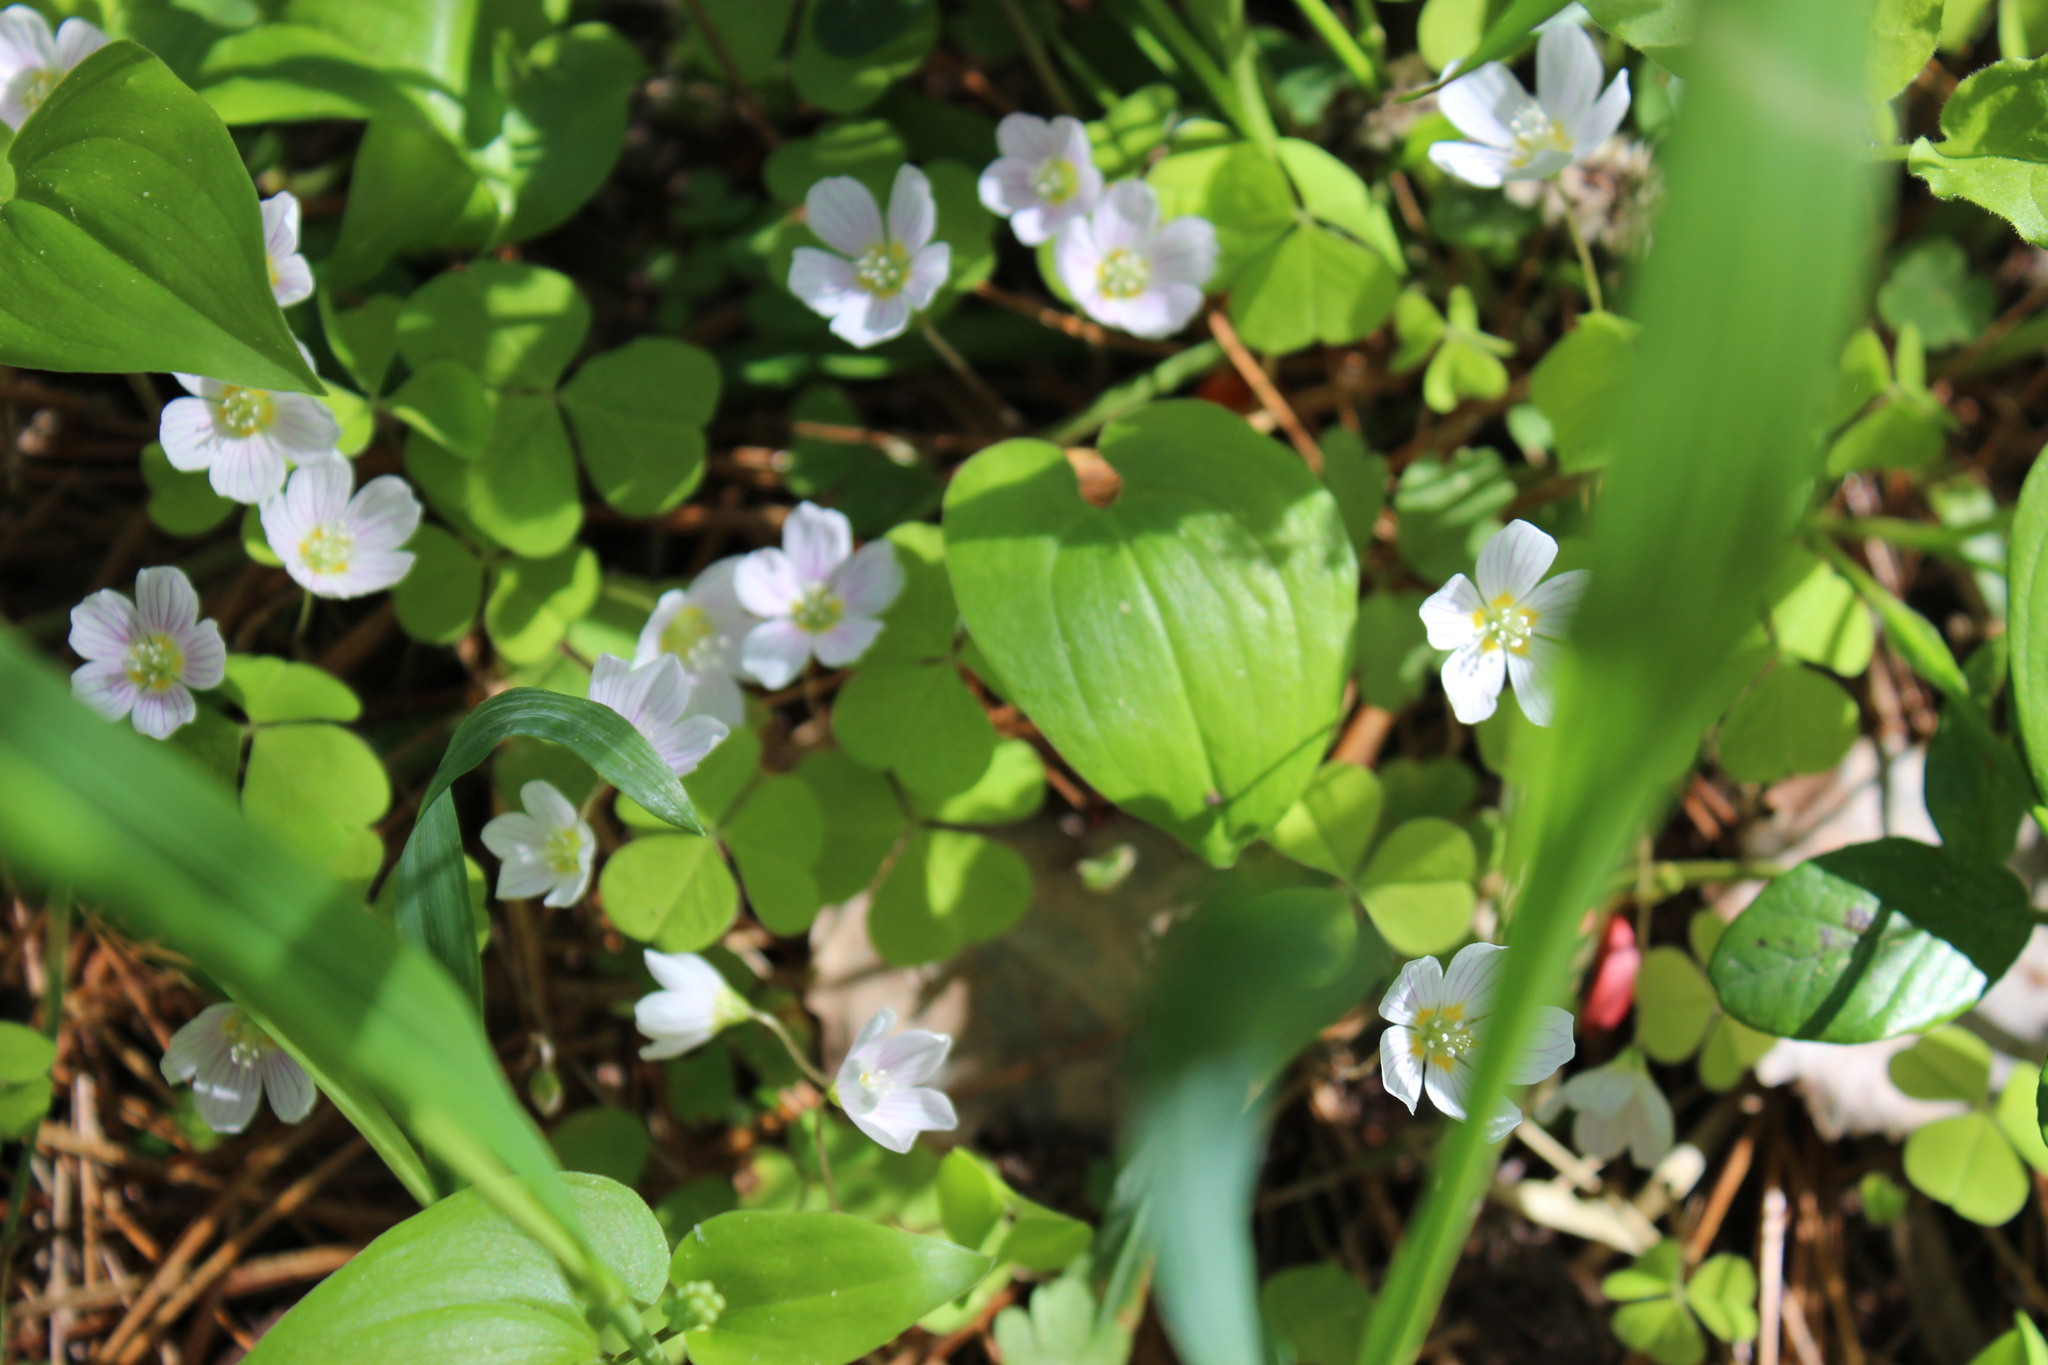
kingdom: Plantae
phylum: Tracheophyta
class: Magnoliopsida
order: Oxalidales
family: Oxalidaceae
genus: Oxalis
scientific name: Oxalis acetosella
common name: Wood-sorrel
